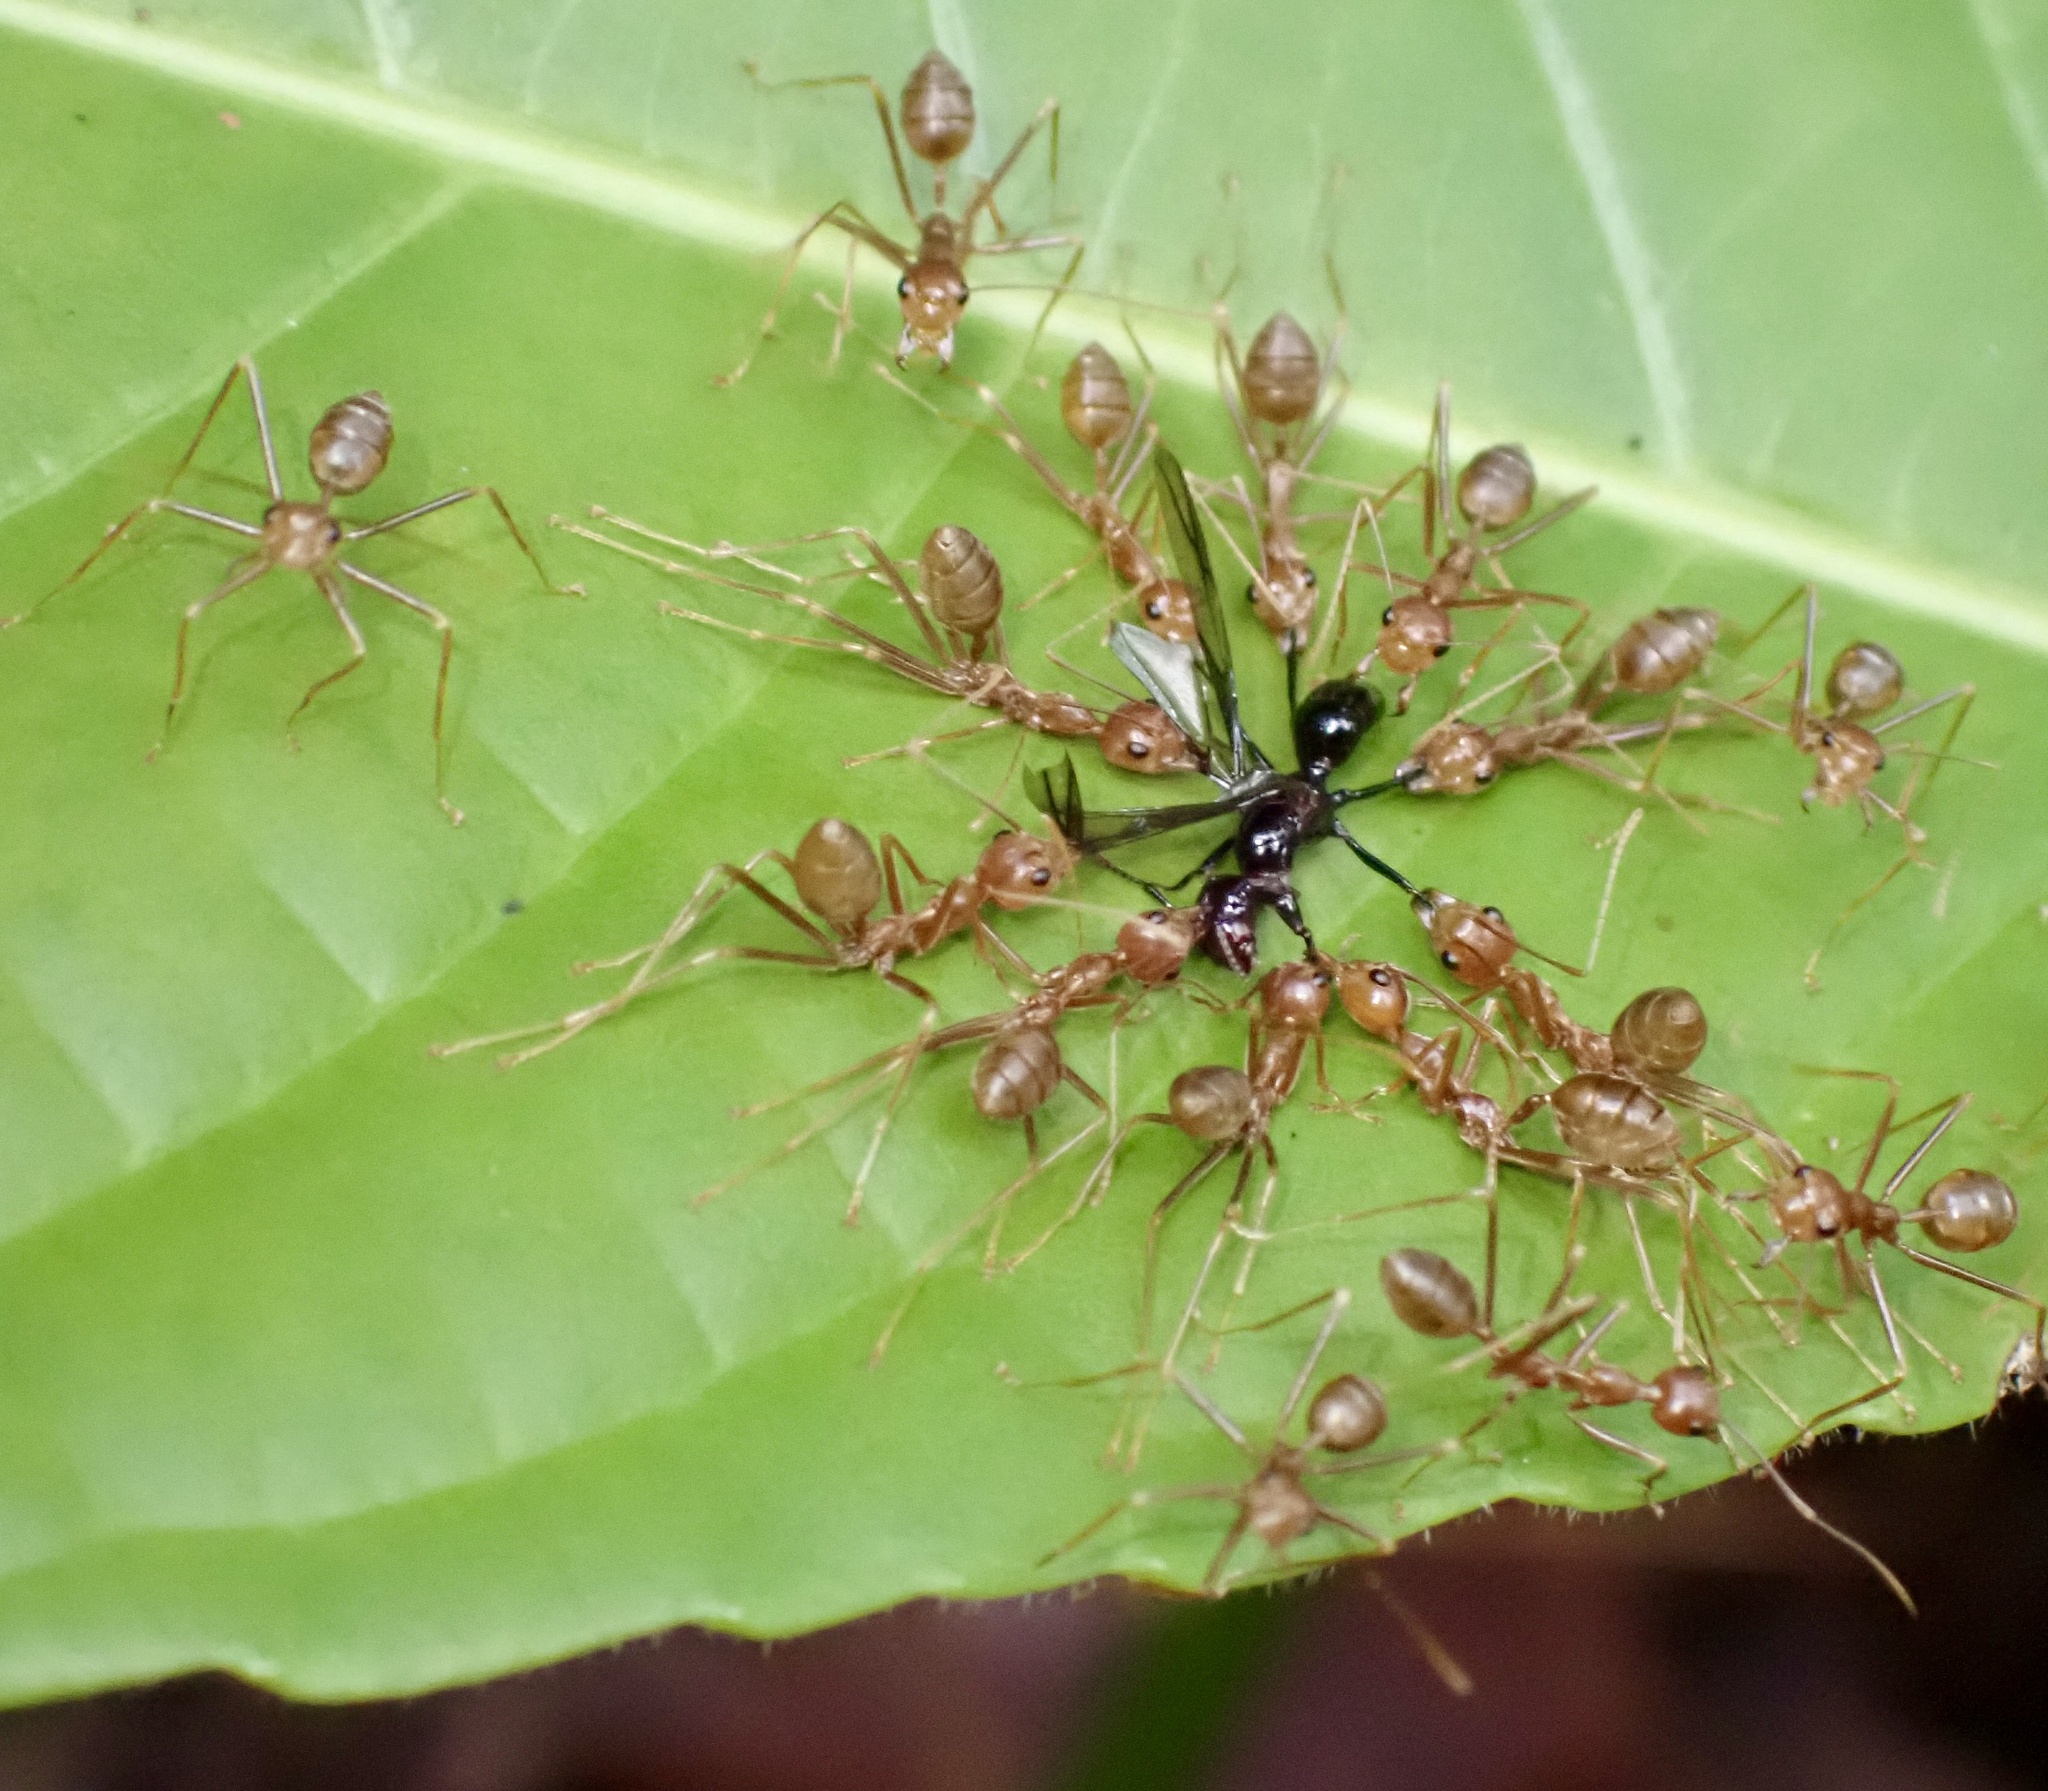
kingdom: Animalia
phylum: Arthropoda
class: Insecta
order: Hymenoptera
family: Formicidae
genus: Oecophylla
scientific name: Oecophylla smaragdina
